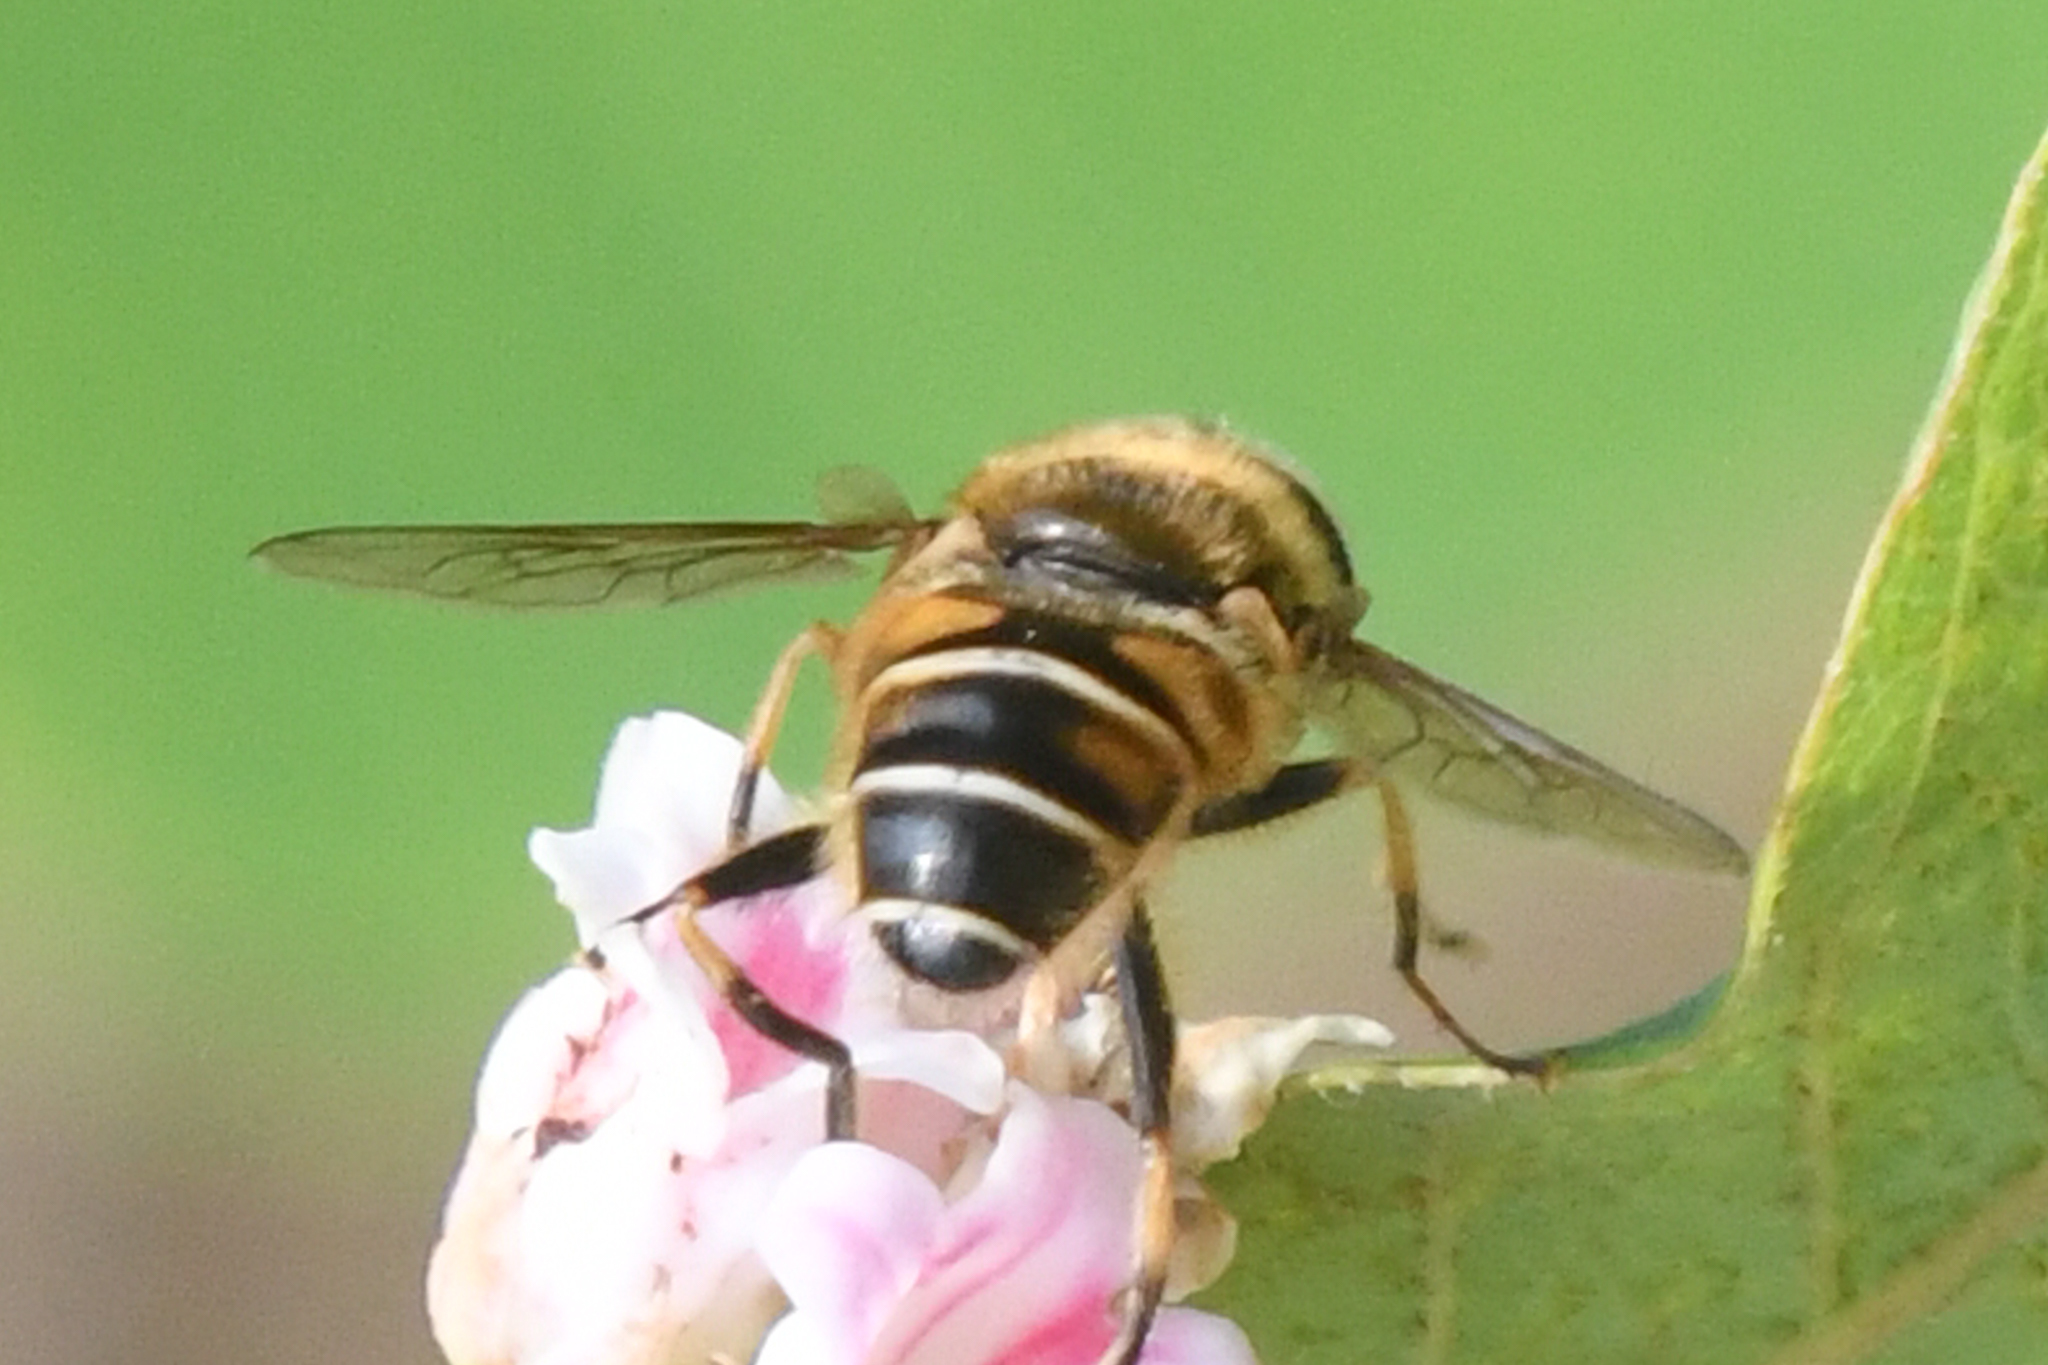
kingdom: Animalia
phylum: Arthropoda
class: Insecta
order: Diptera
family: Syrphidae
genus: Eristalis
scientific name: Eristalis nemorum
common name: Orange-spined drone fly
